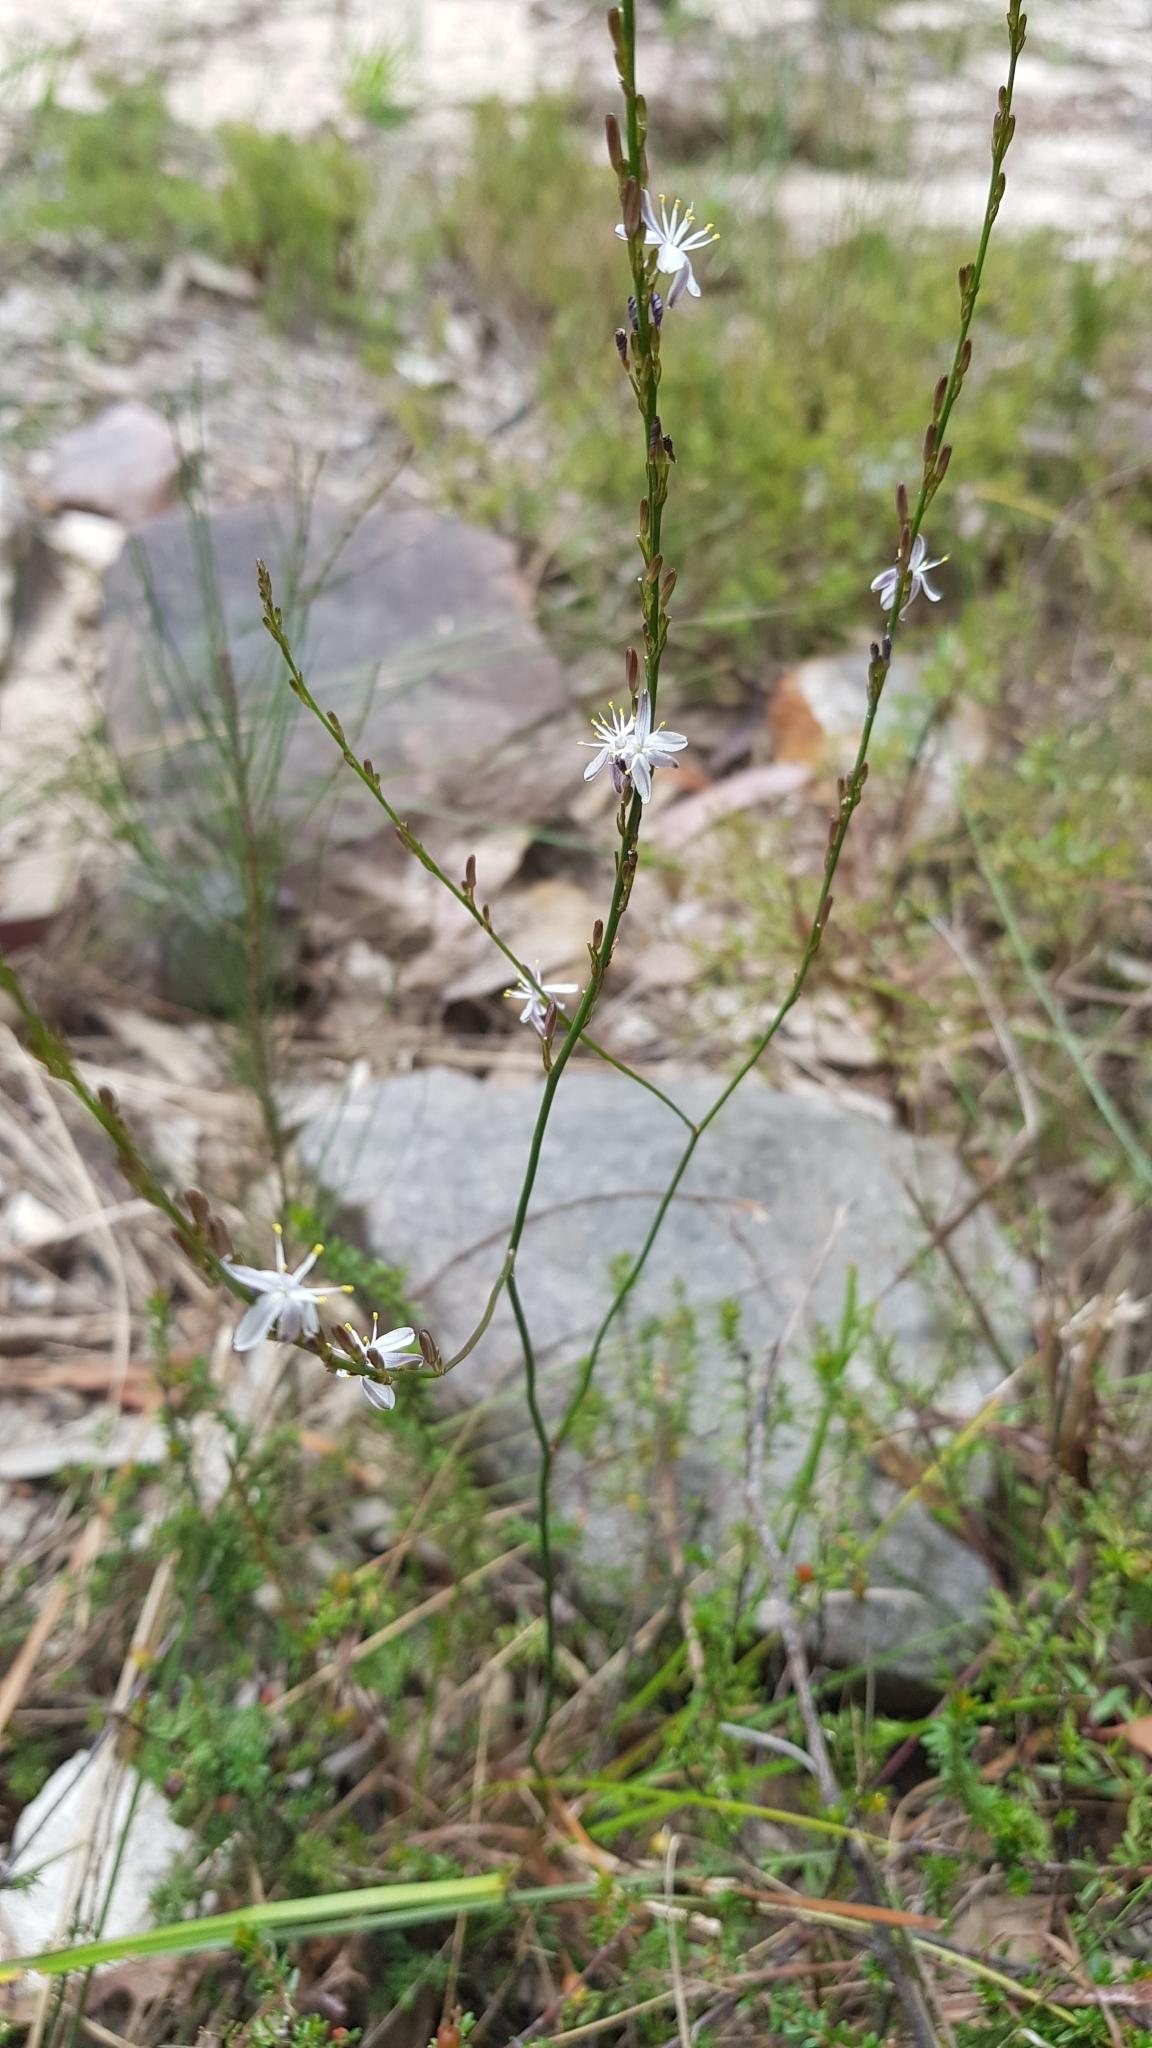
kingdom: Plantae
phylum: Tracheophyta
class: Liliopsida
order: Asparagales
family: Asphodelaceae
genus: Caesia
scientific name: Caesia parviflora
